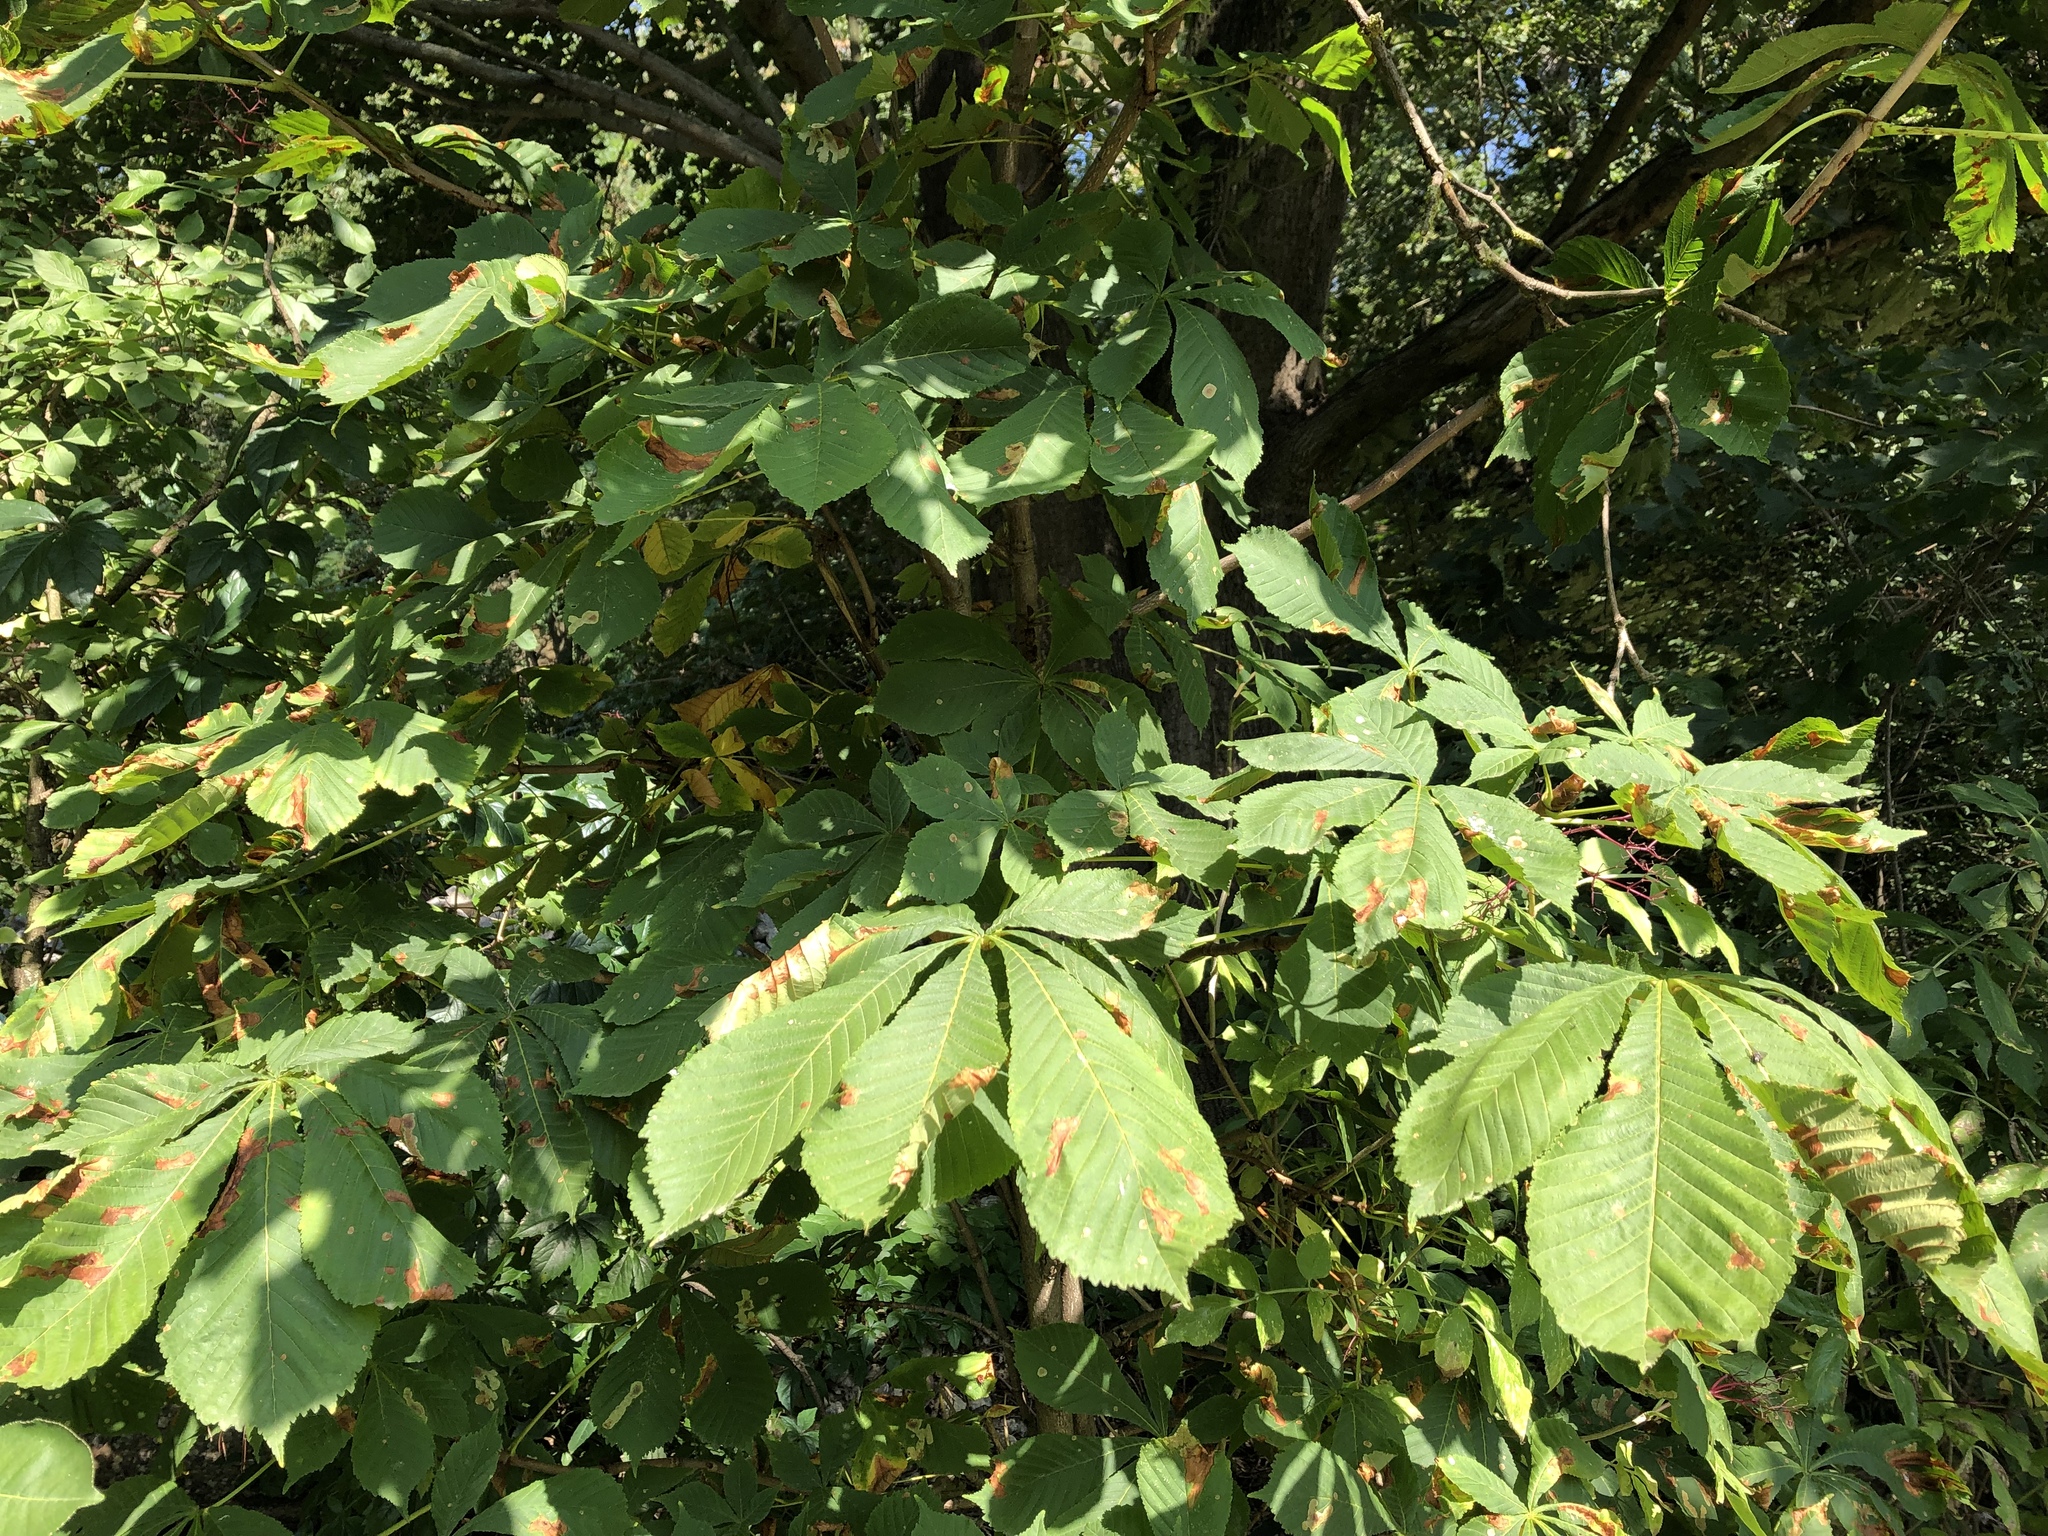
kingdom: Plantae
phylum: Tracheophyta
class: Magnoliopsida
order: Sapindales
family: Sapindaceae
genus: Aesculus
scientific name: Aesculus hippocastanum
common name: Horse-chestnut
